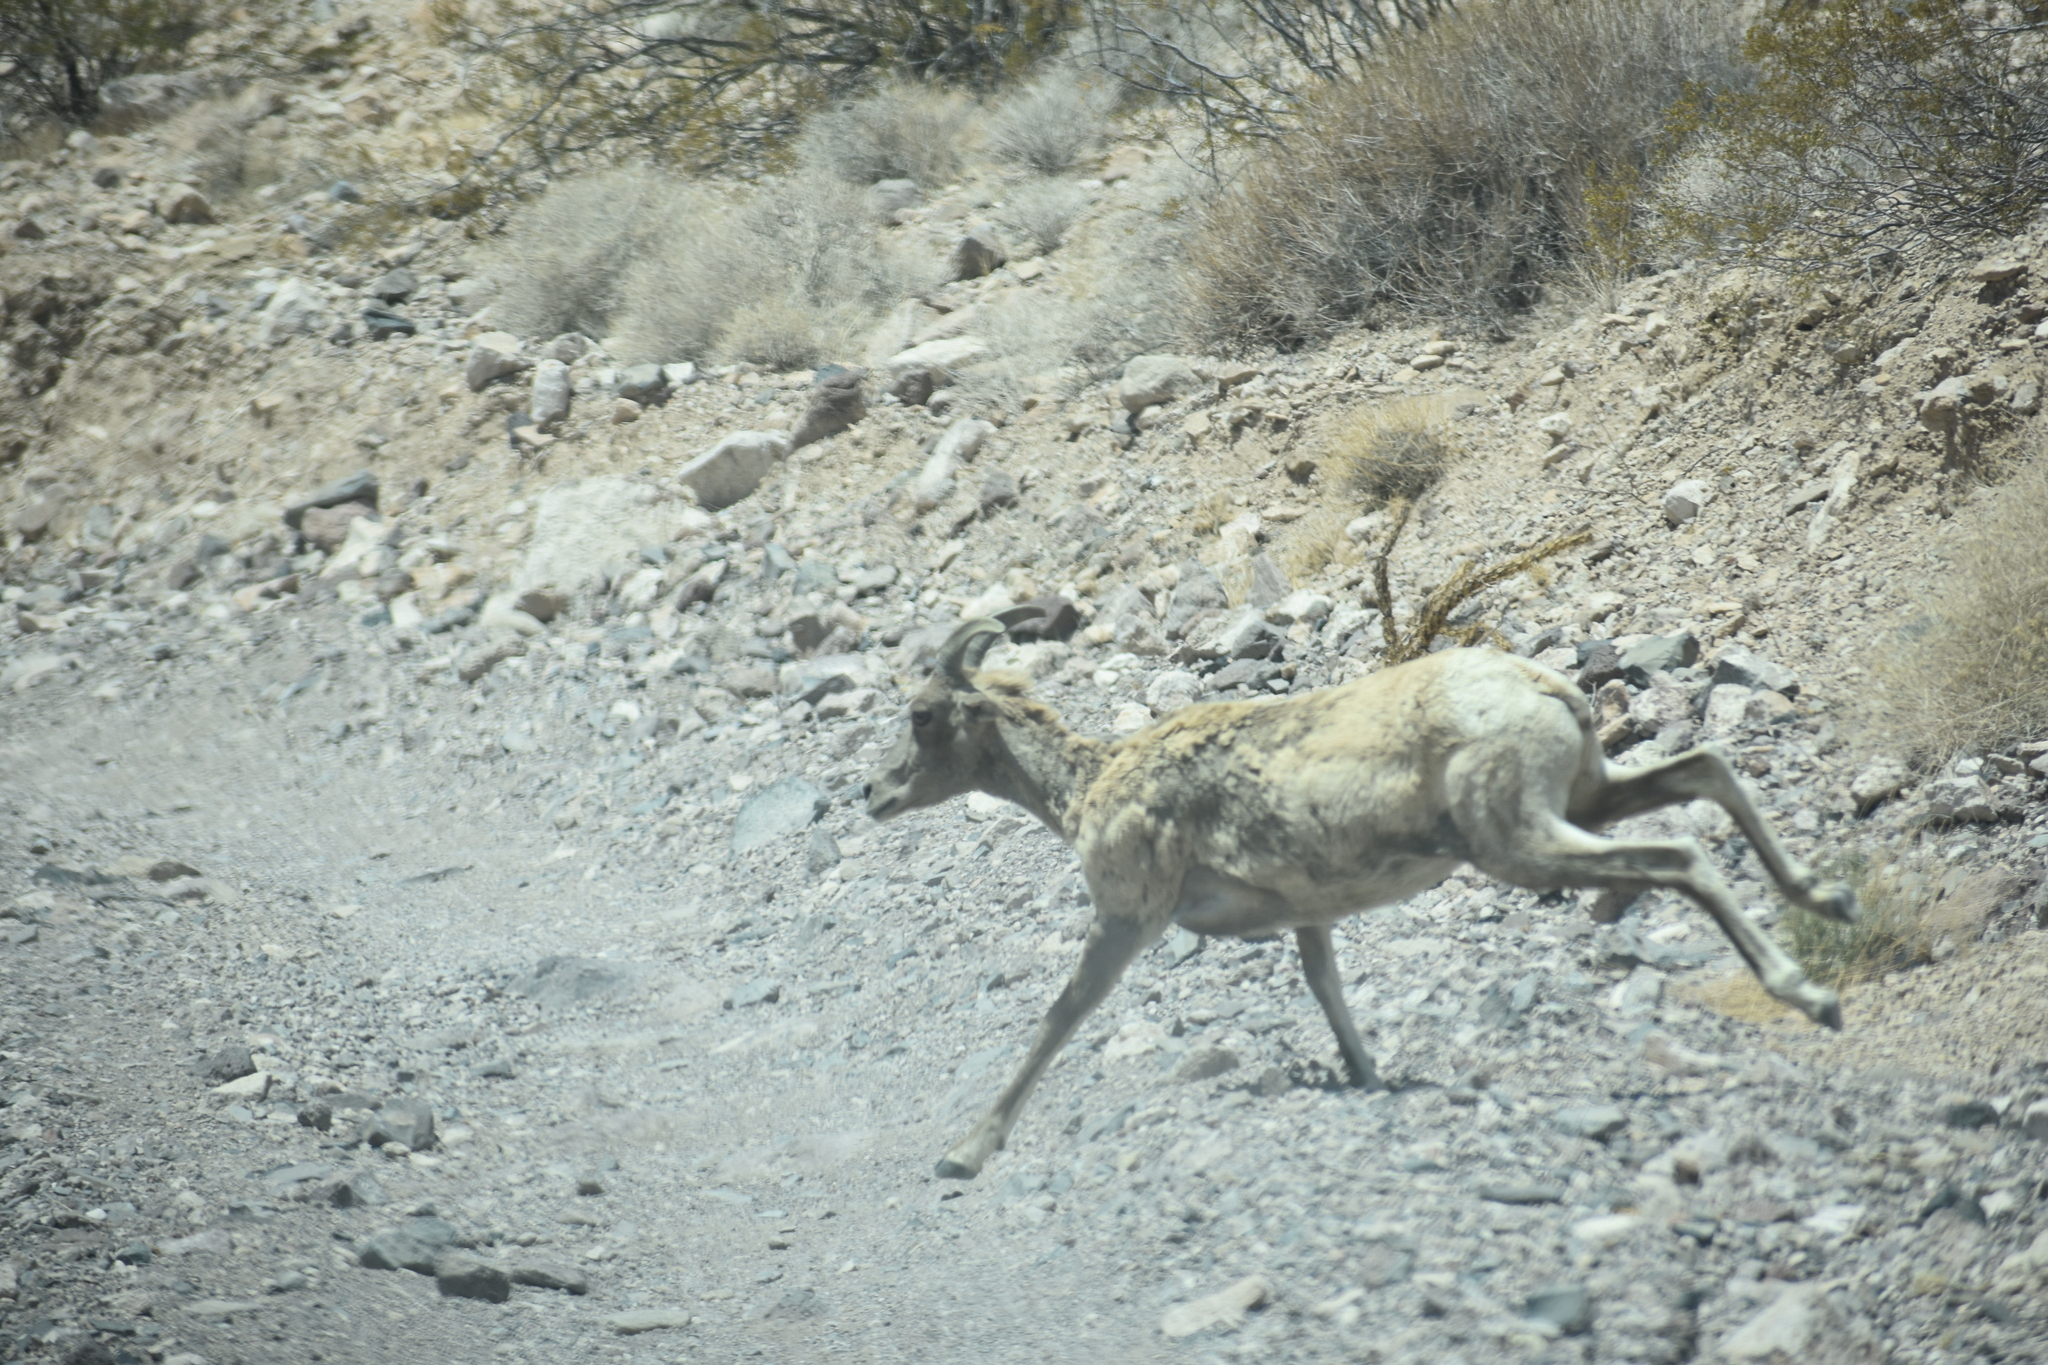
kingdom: Animalia
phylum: Chordata
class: Mammalia
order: Artiodactyla
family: Bovidae
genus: Ovis
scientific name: Ovis canadensis
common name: Bighorn sheep
